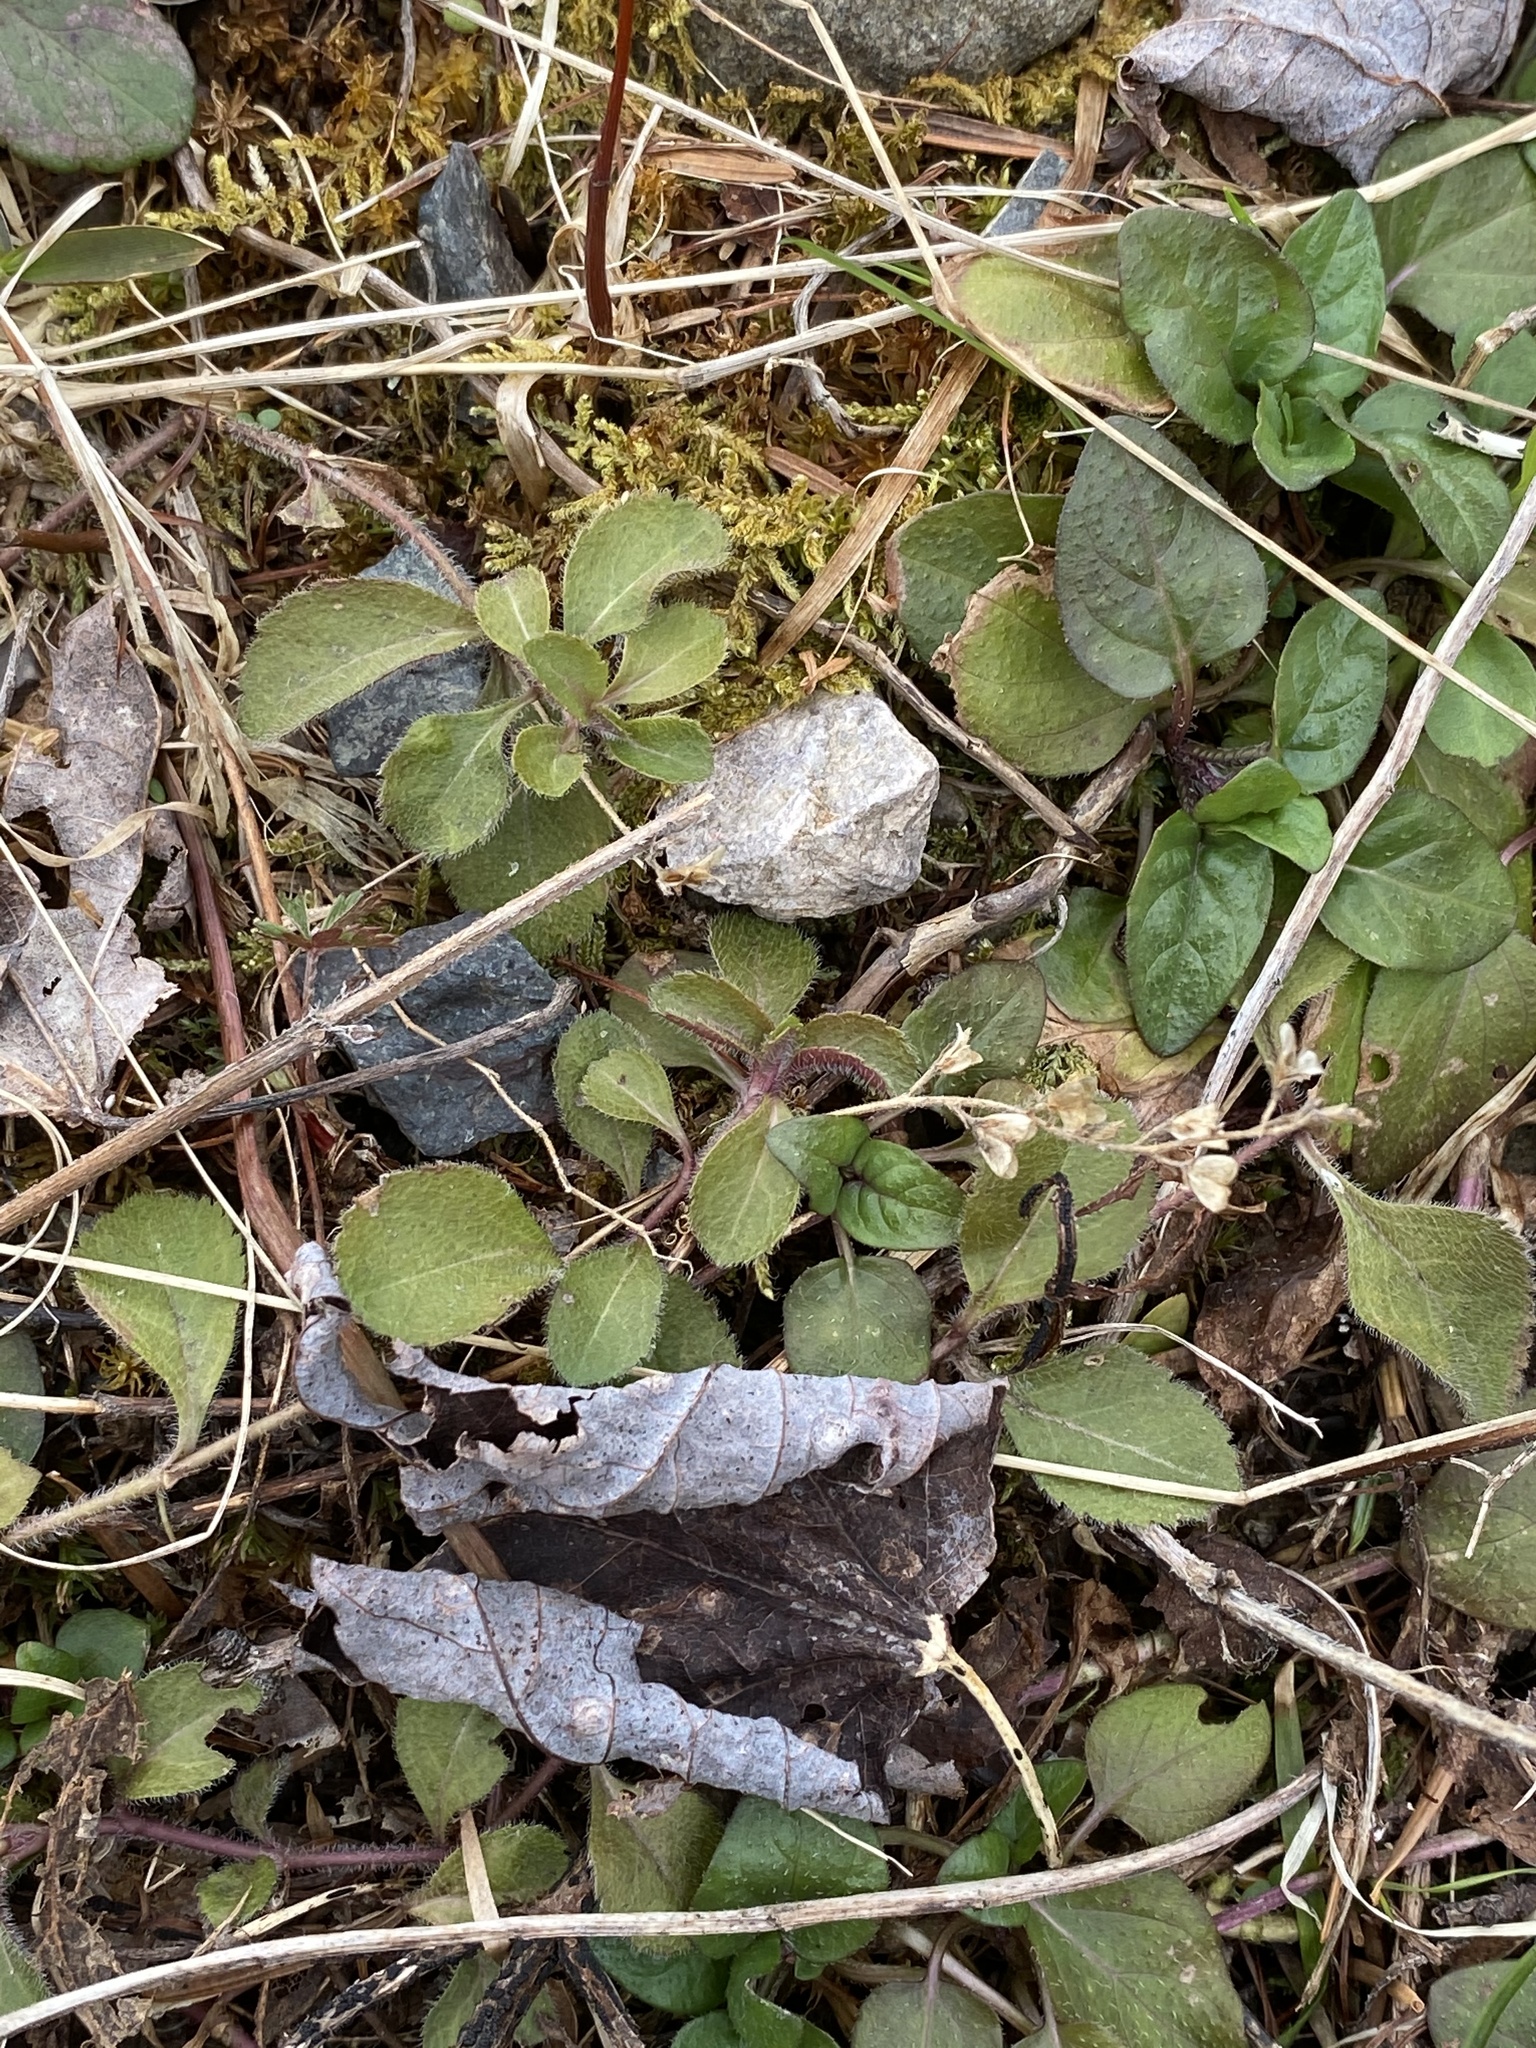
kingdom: Plantae
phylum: Tracheophyta
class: Magnoliopsida
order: Lamiales
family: Plantaginaceae
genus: Veronica
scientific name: Veronica officinalis
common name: Common speedwell
